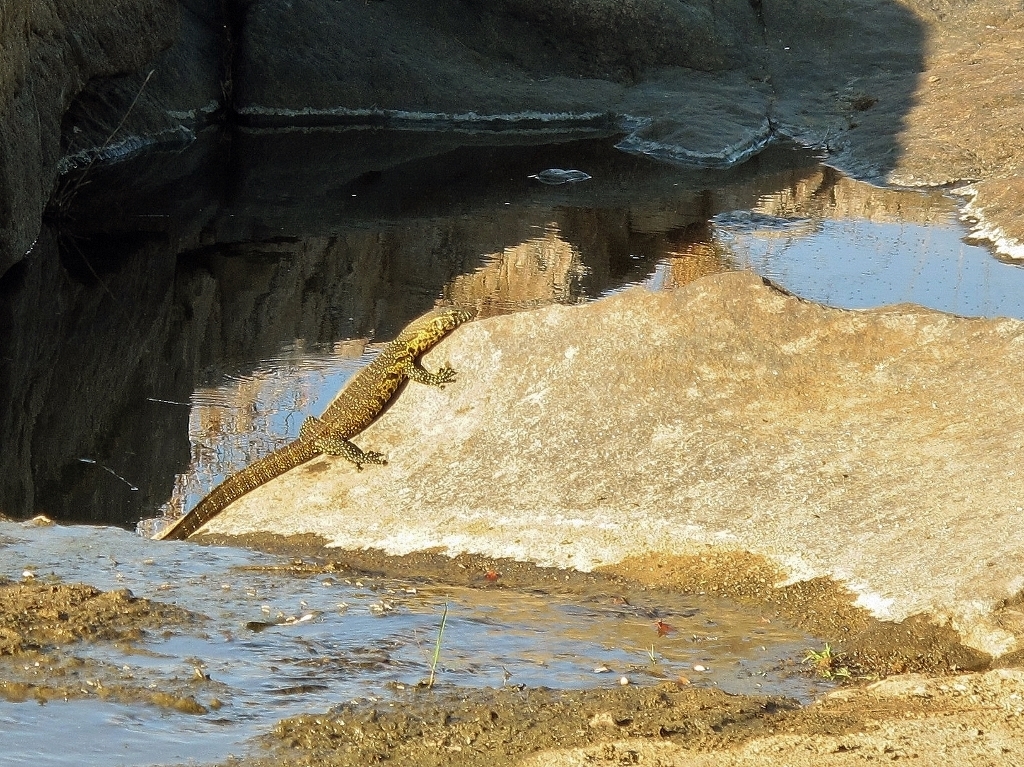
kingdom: Animalia
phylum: Chordata
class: Squamata
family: Varanidae
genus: Varanus
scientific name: Varanus niloticus
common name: Nile monitor
